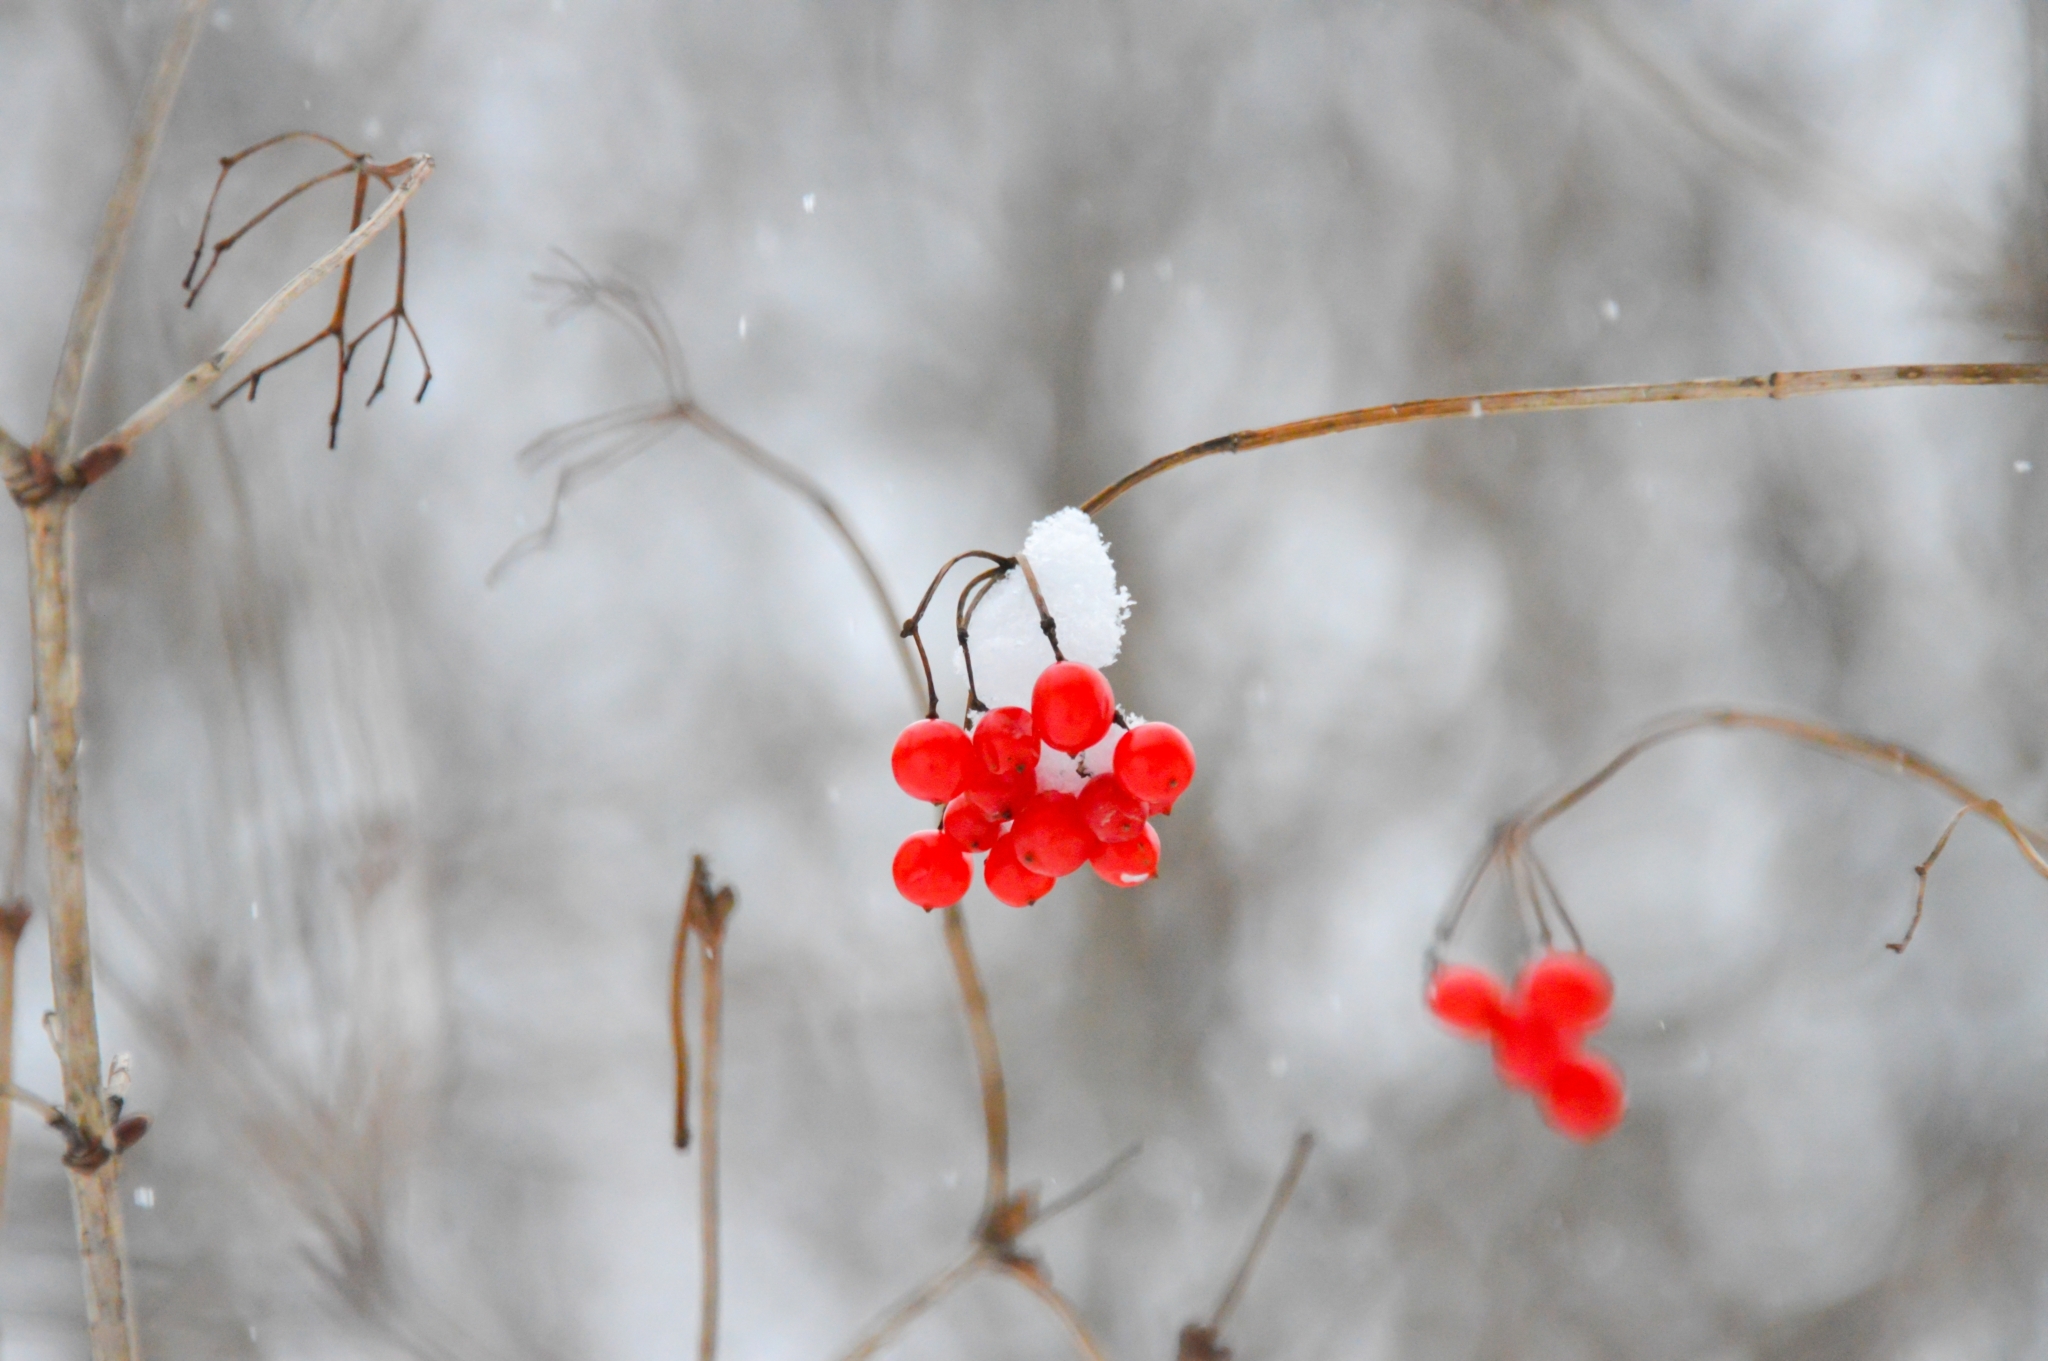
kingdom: Plantae
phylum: Tracheophyta
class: Magnoliopsida
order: Dipsacales
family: Viburnaceae
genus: Viburnum
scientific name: Viburnum opulus
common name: Guelder-rose
